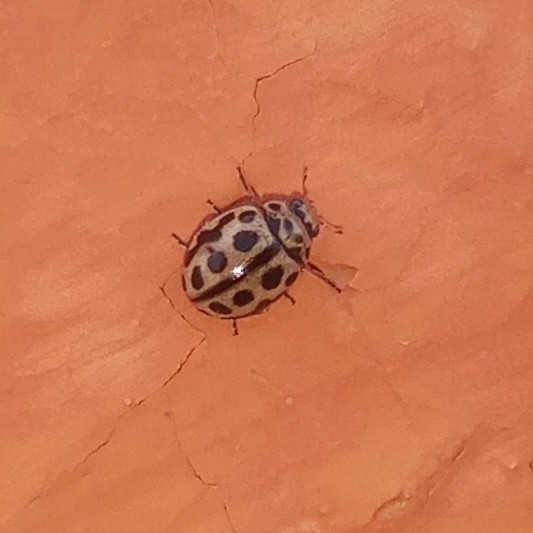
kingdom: Animalia
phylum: Arthropoda
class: Insecta
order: Coleoptera
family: Coccinellidae
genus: Tytthaspis
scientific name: Tytthaspis sedecimpunctata
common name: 16-spot ladybird
